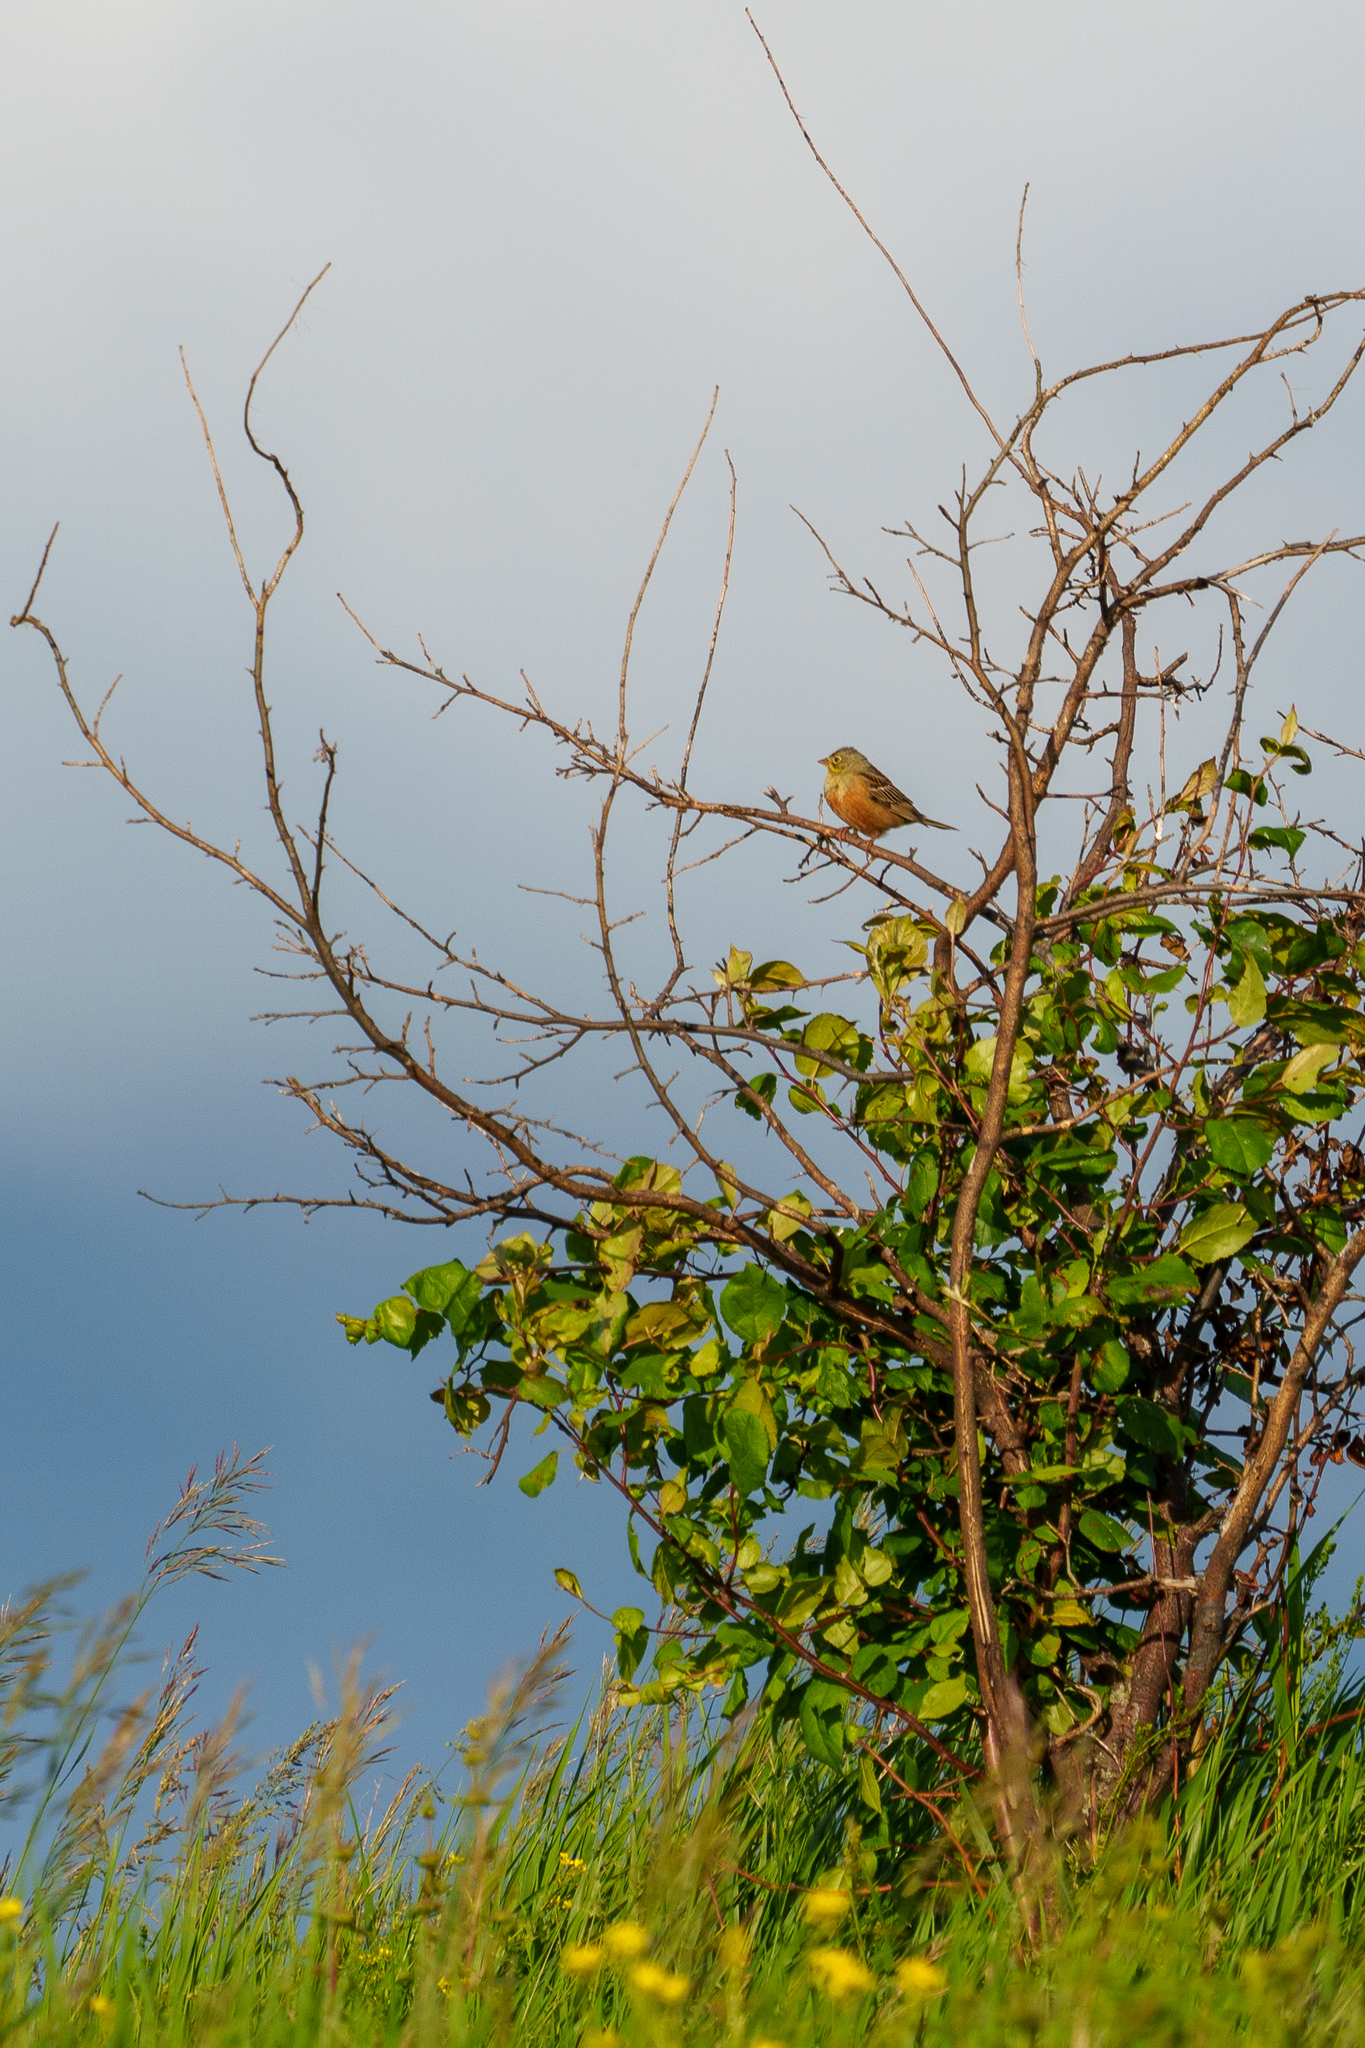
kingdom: Animalia
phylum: Chordata
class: Aves
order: Passeriformes
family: Emberizidae
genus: Emberiza
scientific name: Emberiza hortulana
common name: Ortolan bunting
